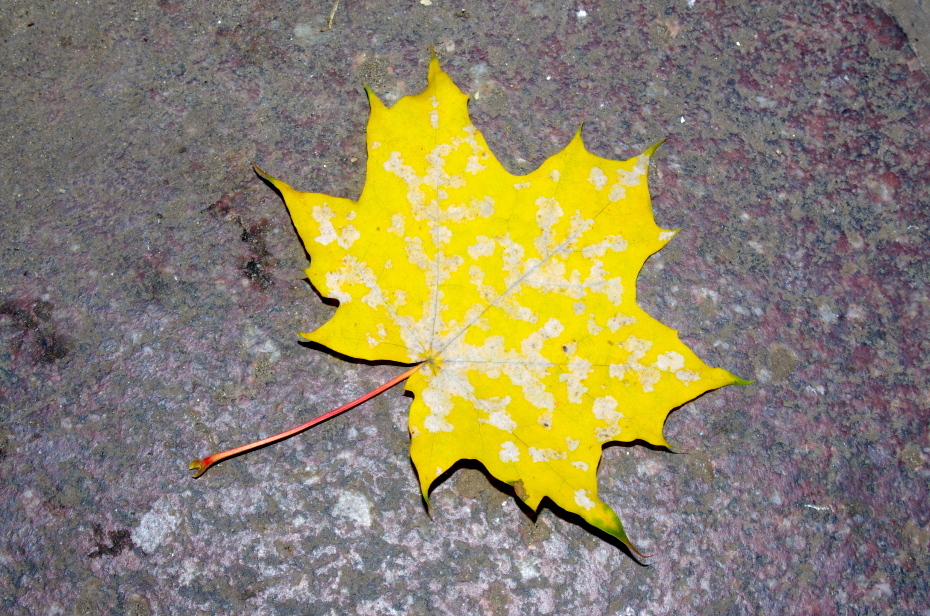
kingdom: Fungi
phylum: Ascomycota
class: Leotiomycetes
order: Helotiales
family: Erysiphaceae
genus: Sawadaea
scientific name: Sawadaea tulasnei
